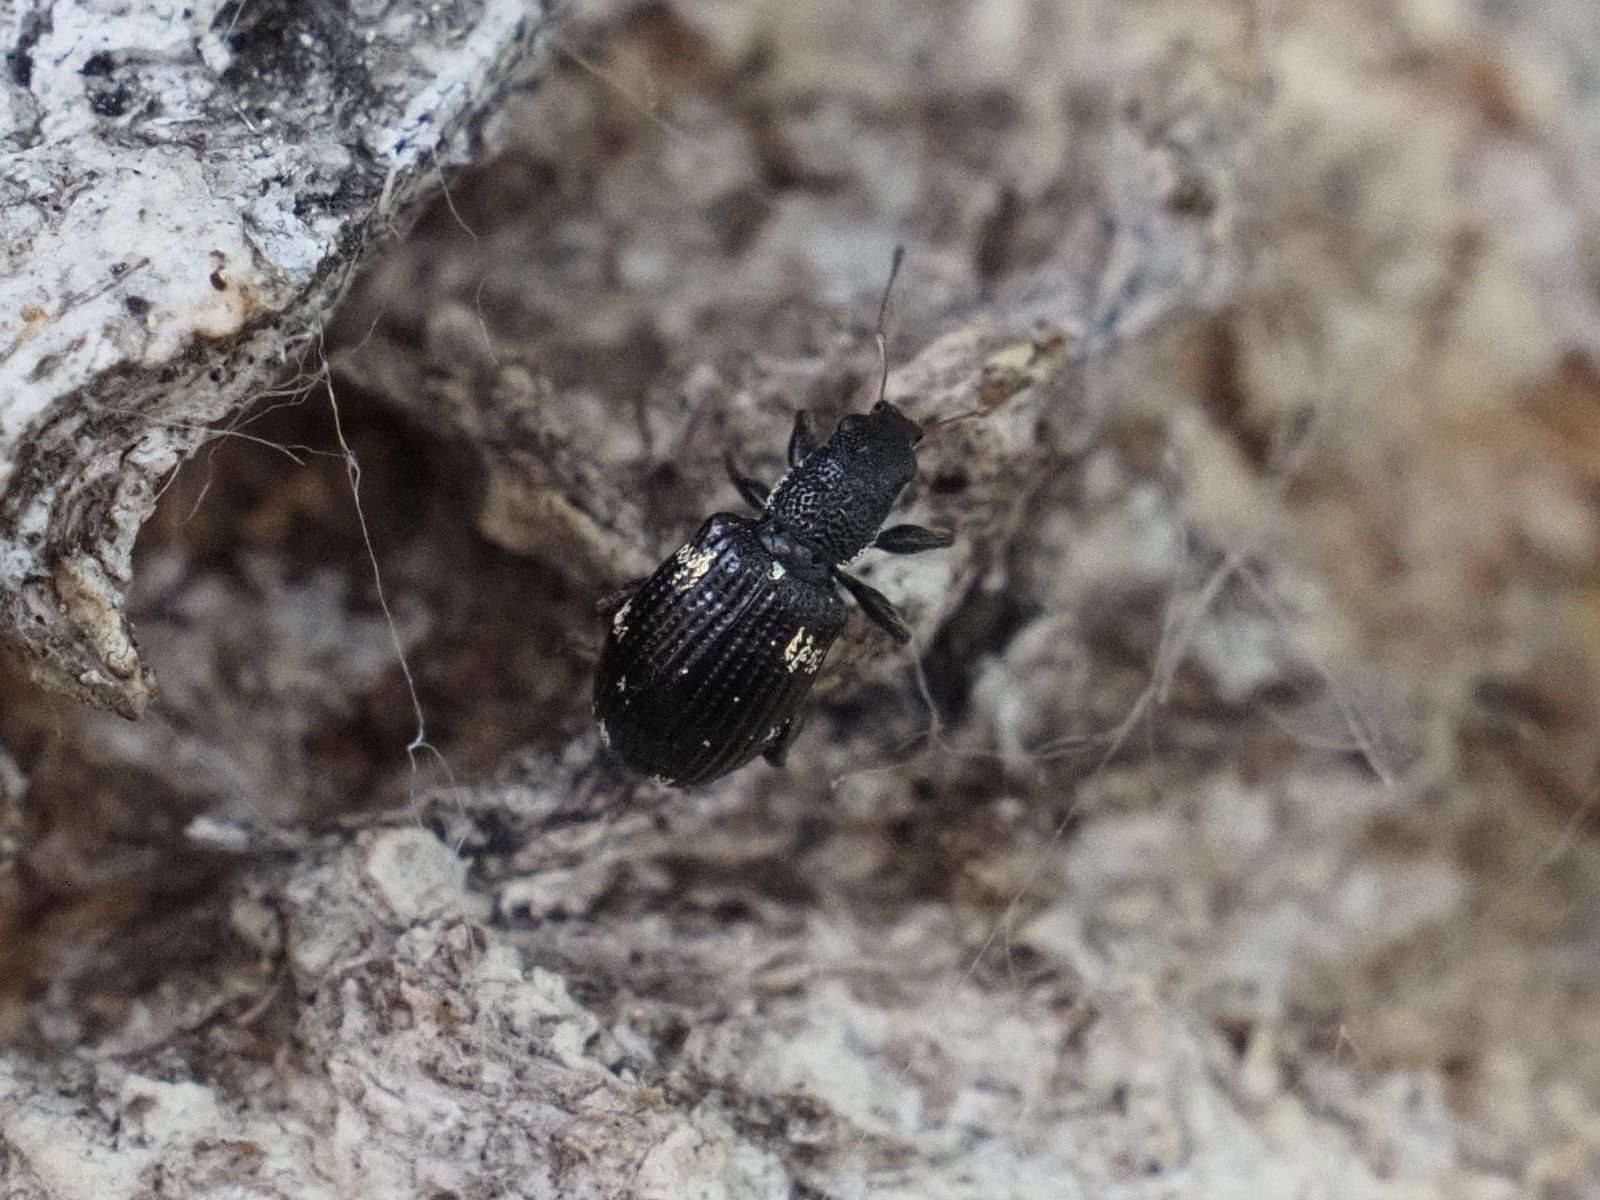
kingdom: Animalia
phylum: Arthropoda
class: Insecta
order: Coleoptera
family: Curculionidae
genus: Polydrusus
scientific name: Polydrusus picus
